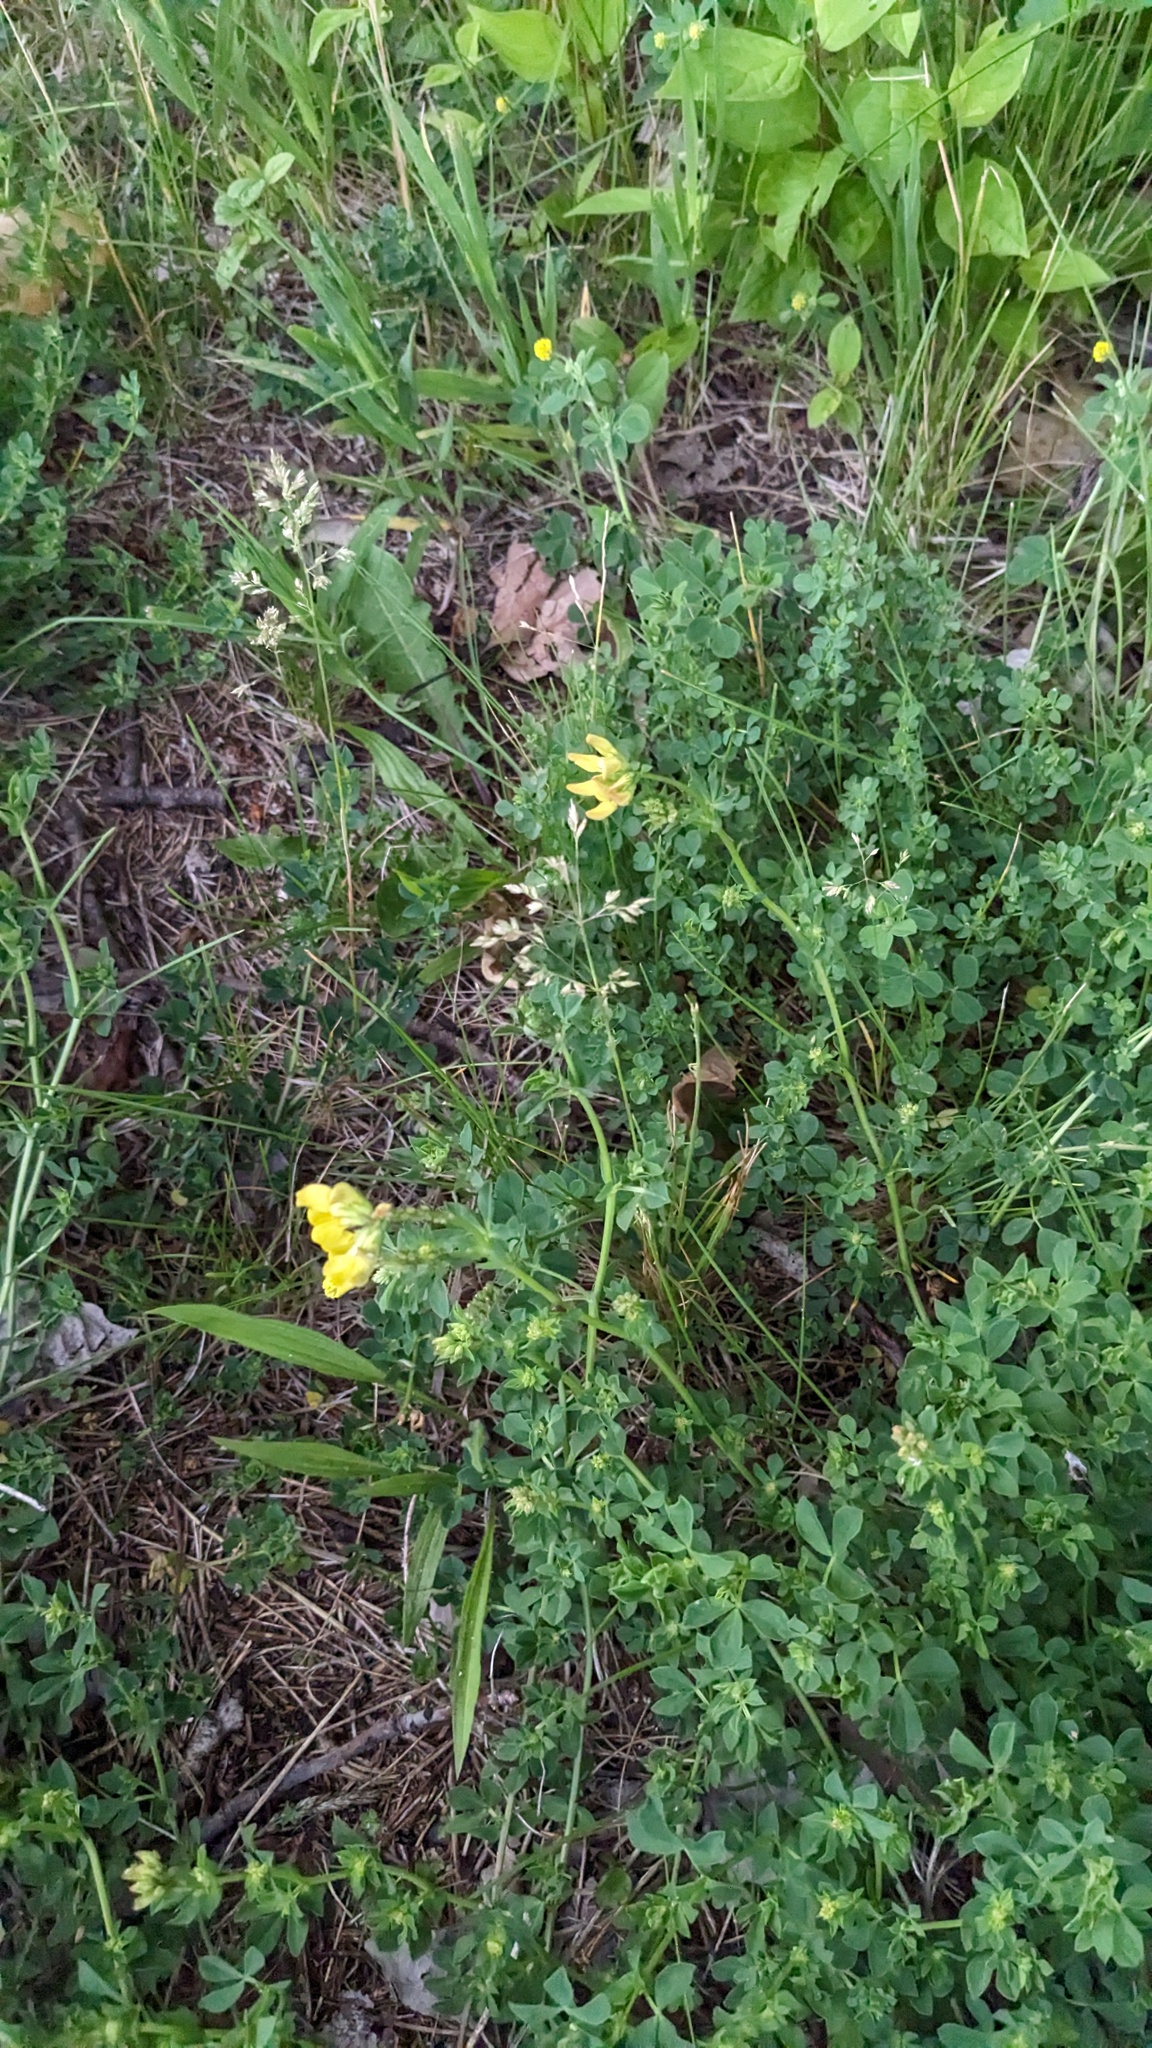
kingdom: Plantae
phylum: Tracheophyta
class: Magnoliopsida
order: Fabales
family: Fabaceae
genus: Lotus
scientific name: Lotus corniculatus
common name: Common bird's-foot-trefoil
